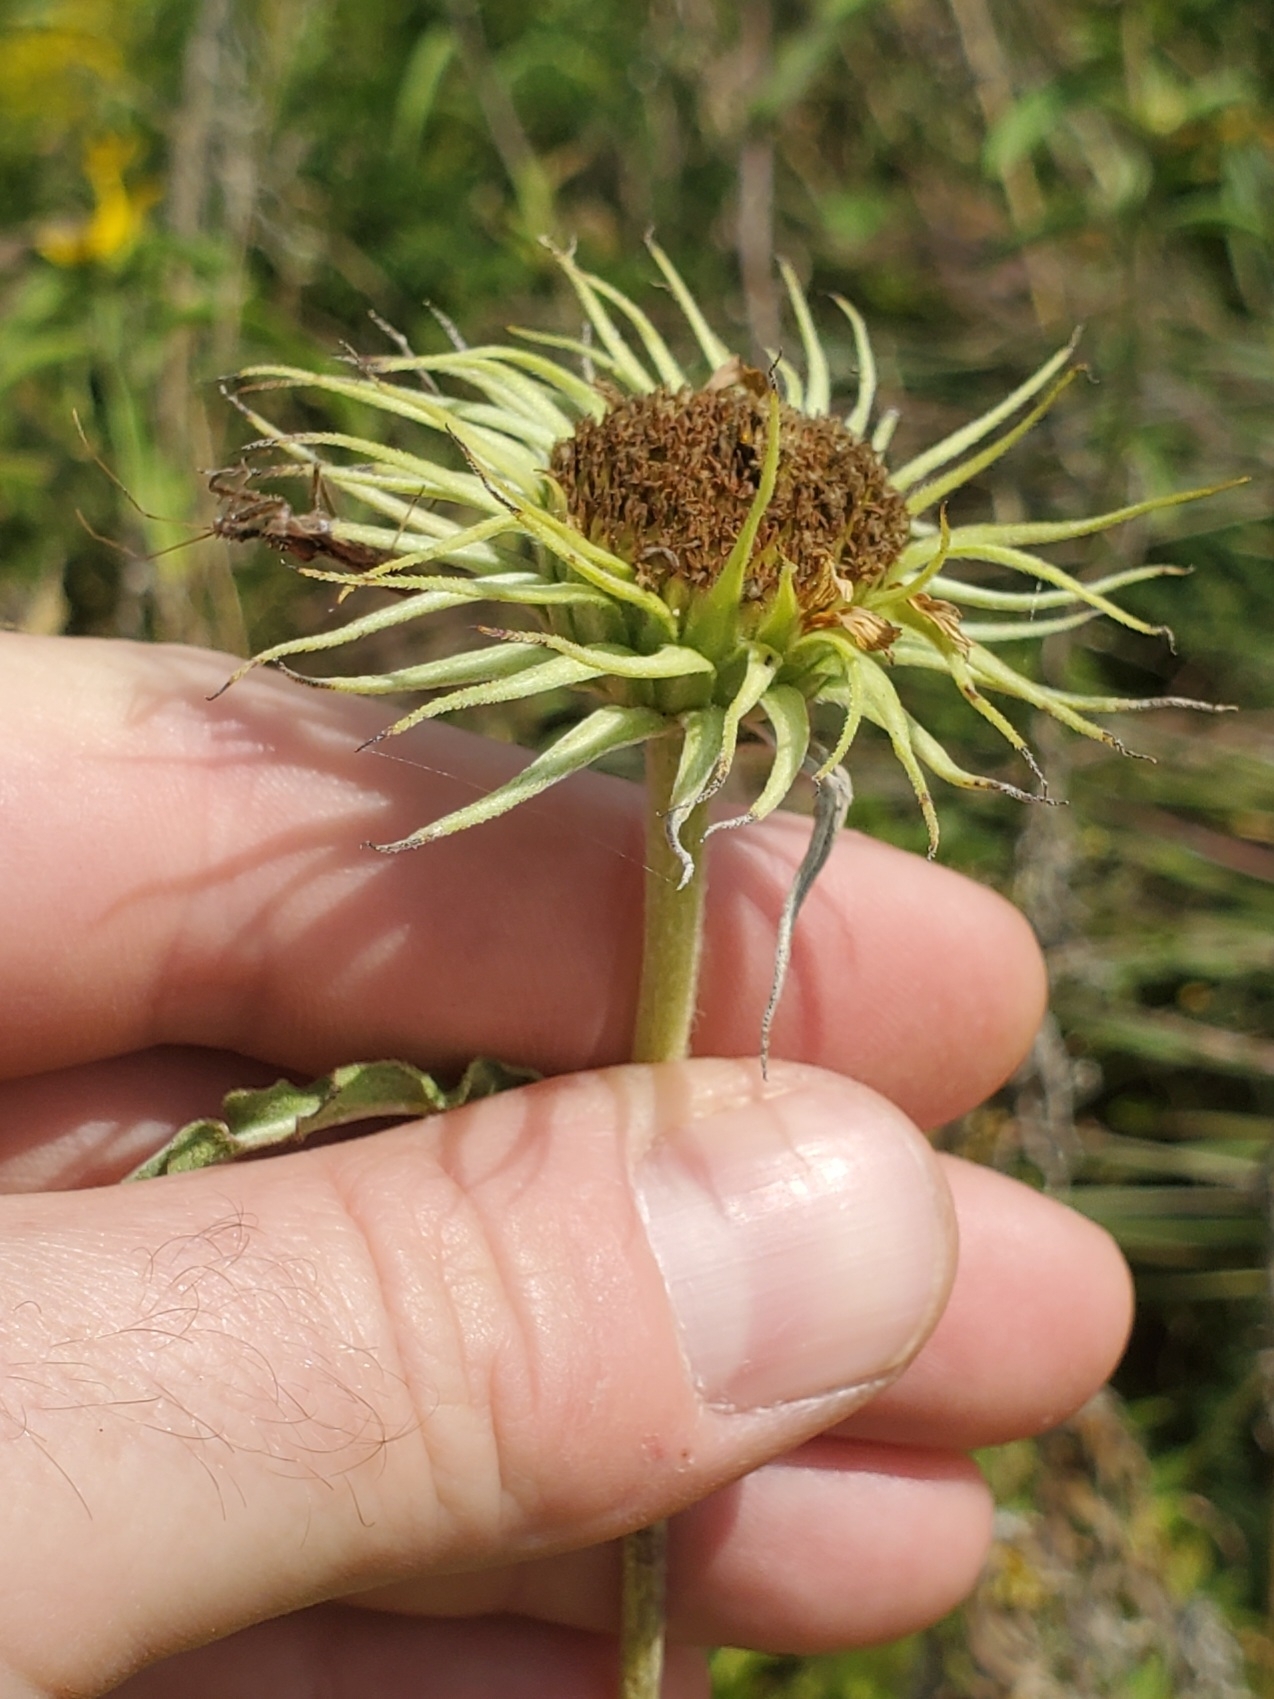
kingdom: Plantae
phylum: Tracheophyta
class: Magnoliopsida
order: Asterales
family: Asteraceae
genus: Helianthus
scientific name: Helianthus maximiliani
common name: Maximilian's sunflower
